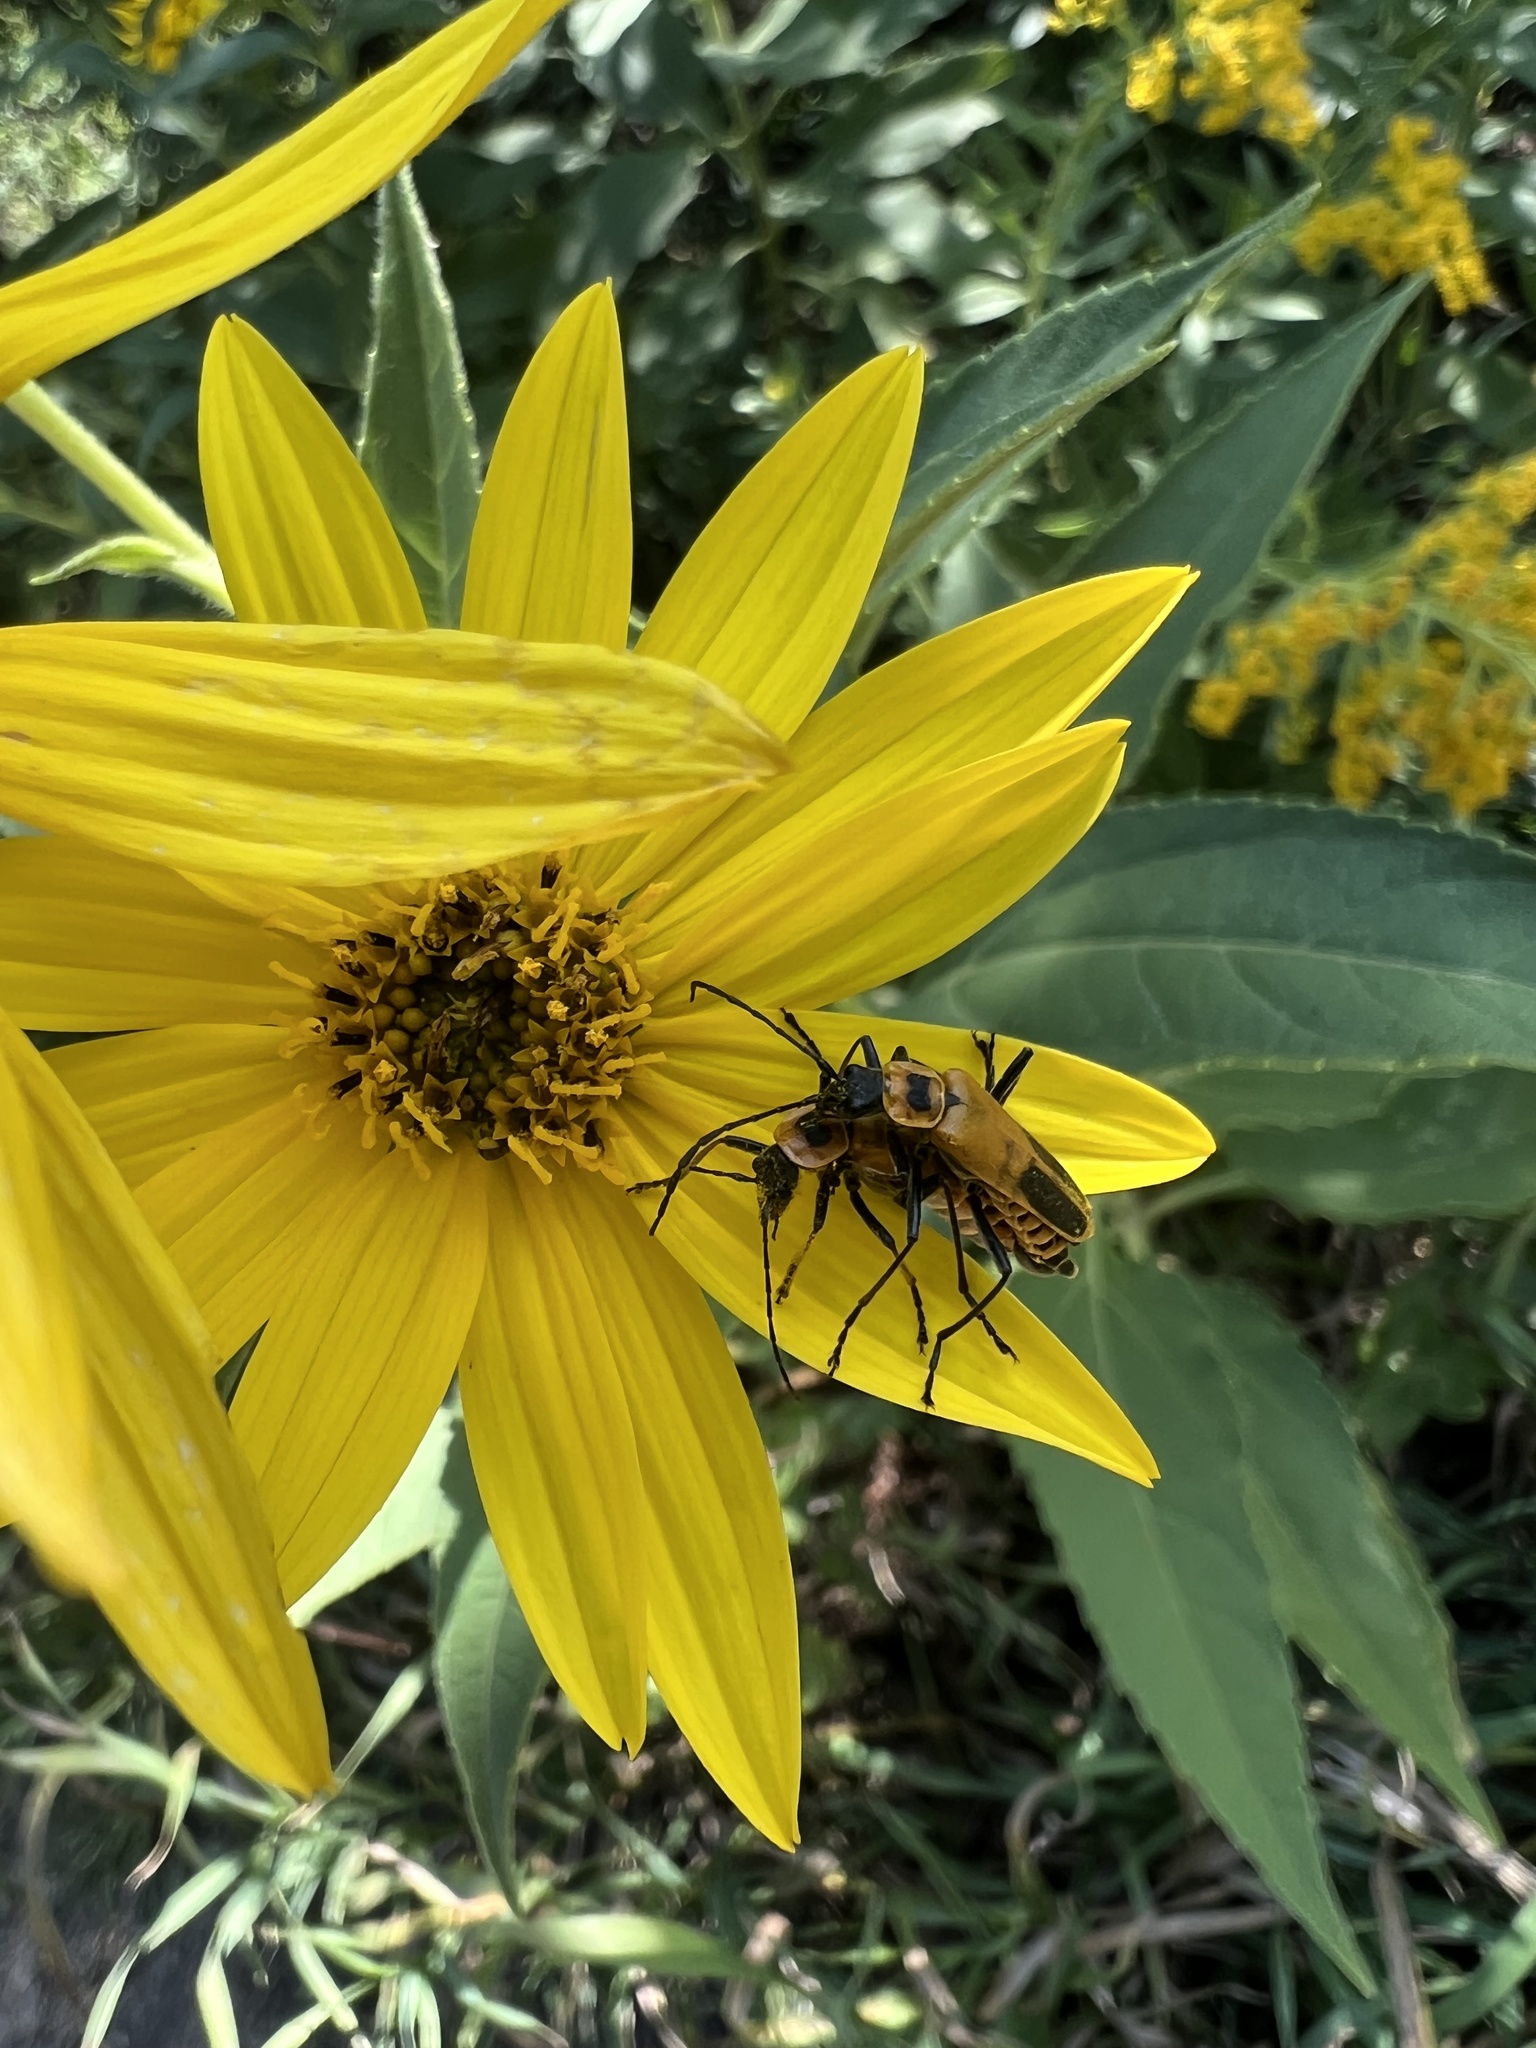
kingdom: Animalia
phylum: Arthropoda
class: Insecta
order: Coleoptera
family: Cantharidae
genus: Chauliognathus
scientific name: Chauliognathus pensylvanicus
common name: Goldenrod soldier beetle
